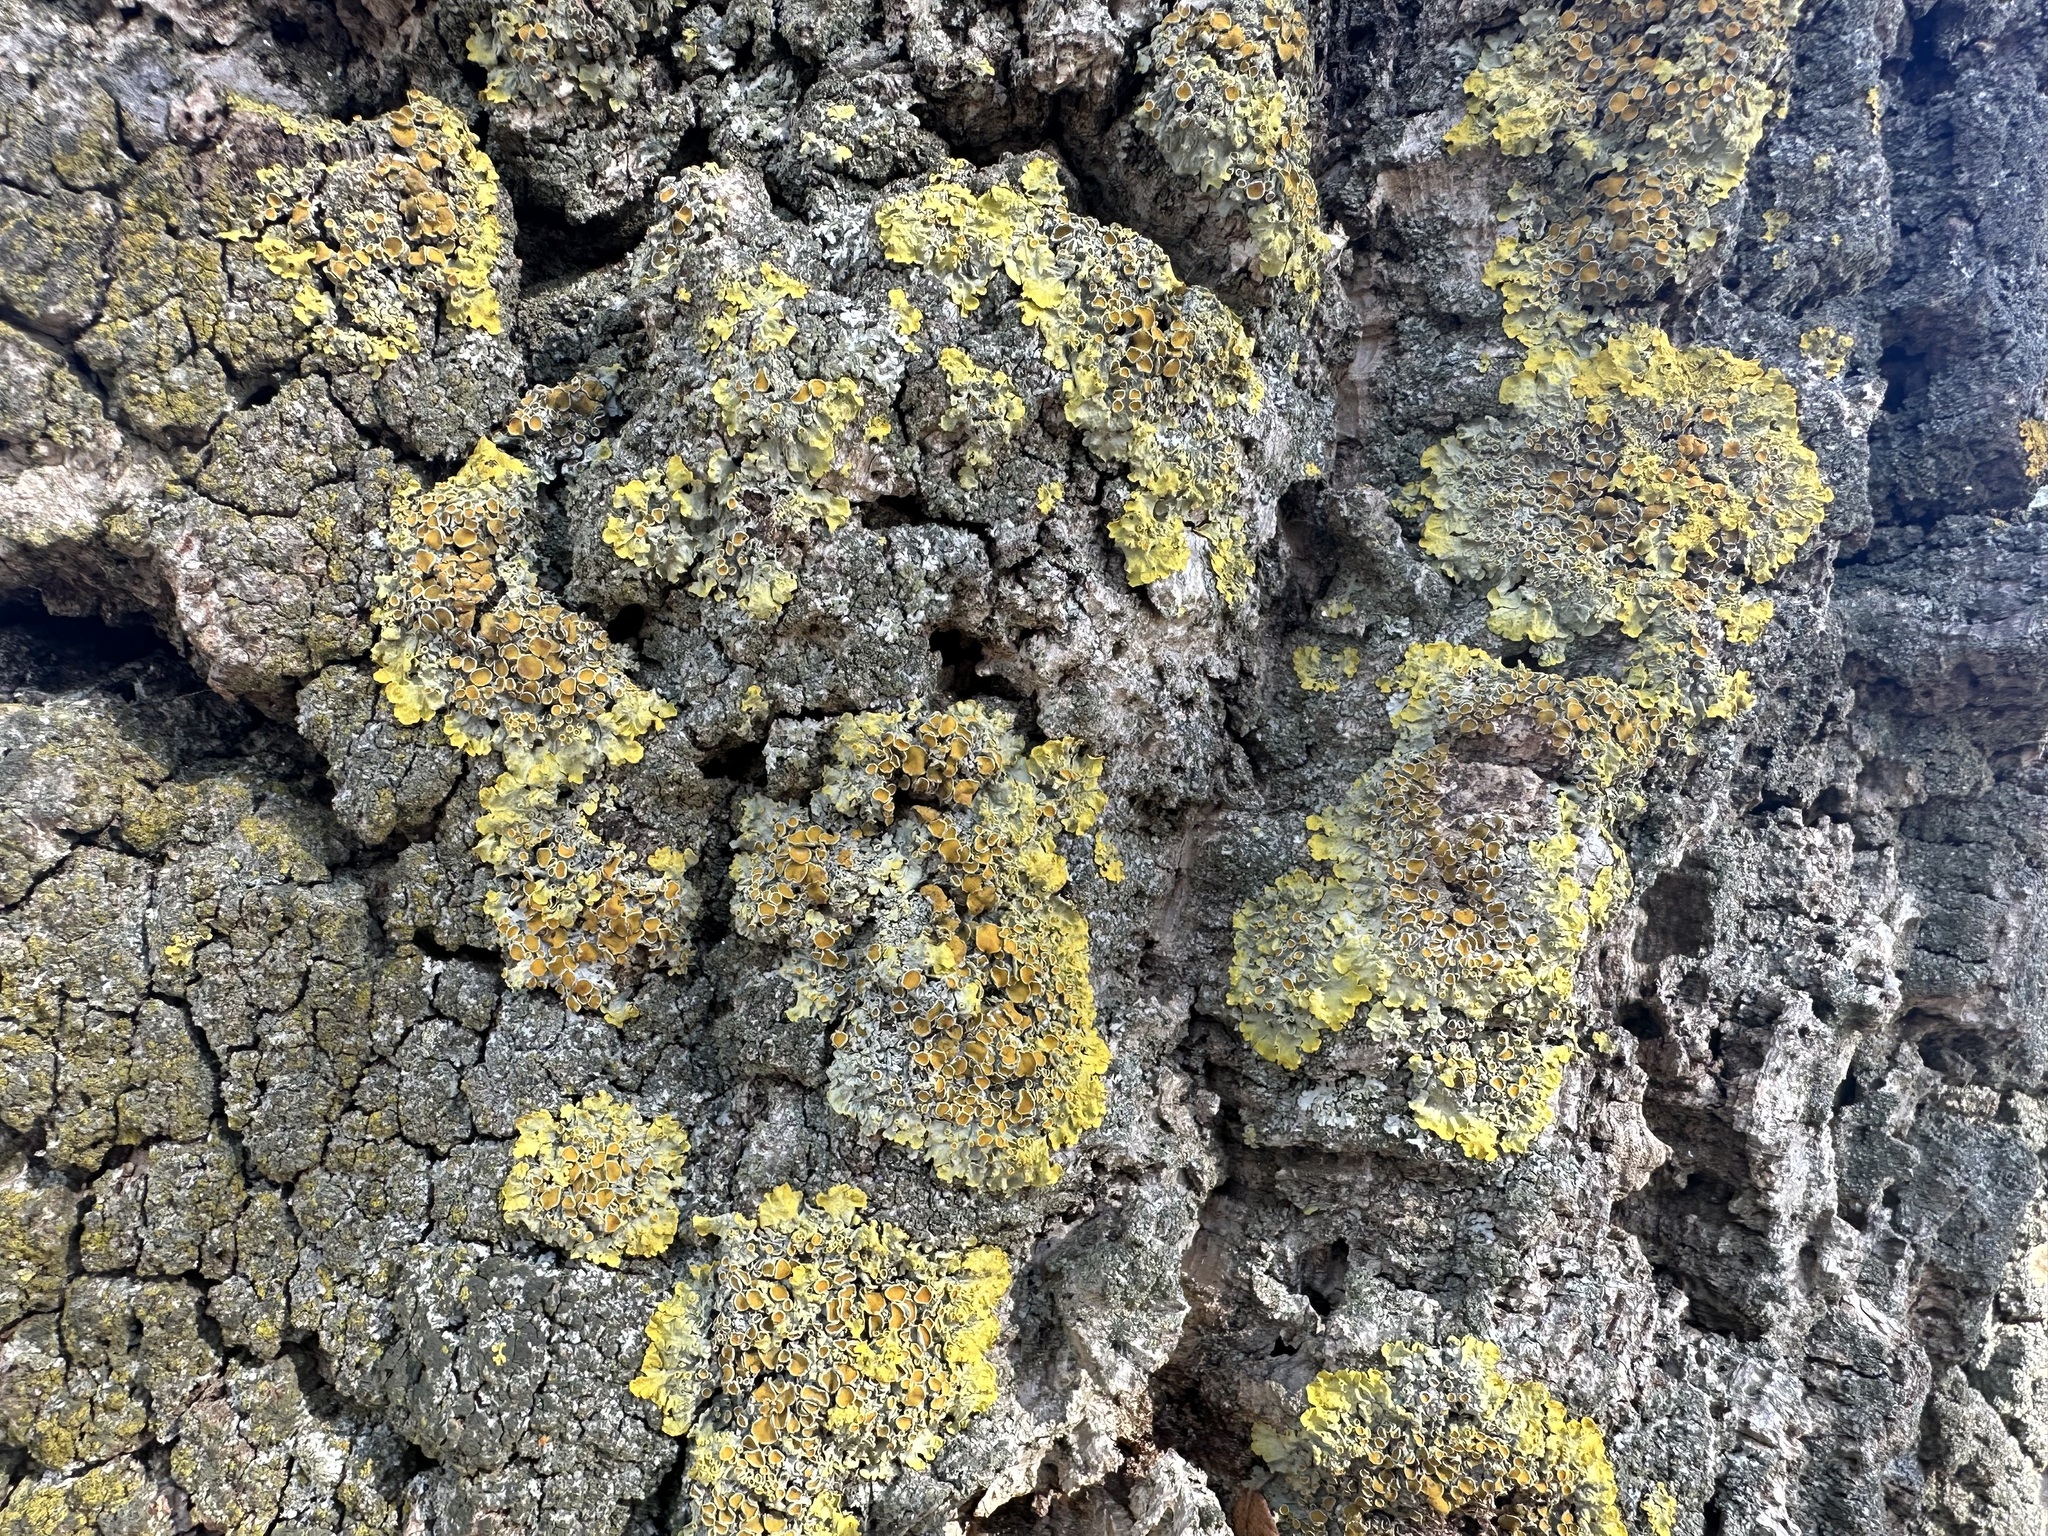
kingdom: Fungi
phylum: Ascomycota
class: Lecanoromycetes
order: Teloschistales
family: Teloschistaceae
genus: Xanthoria
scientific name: Xanthoria parietina
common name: Common orange lichen
